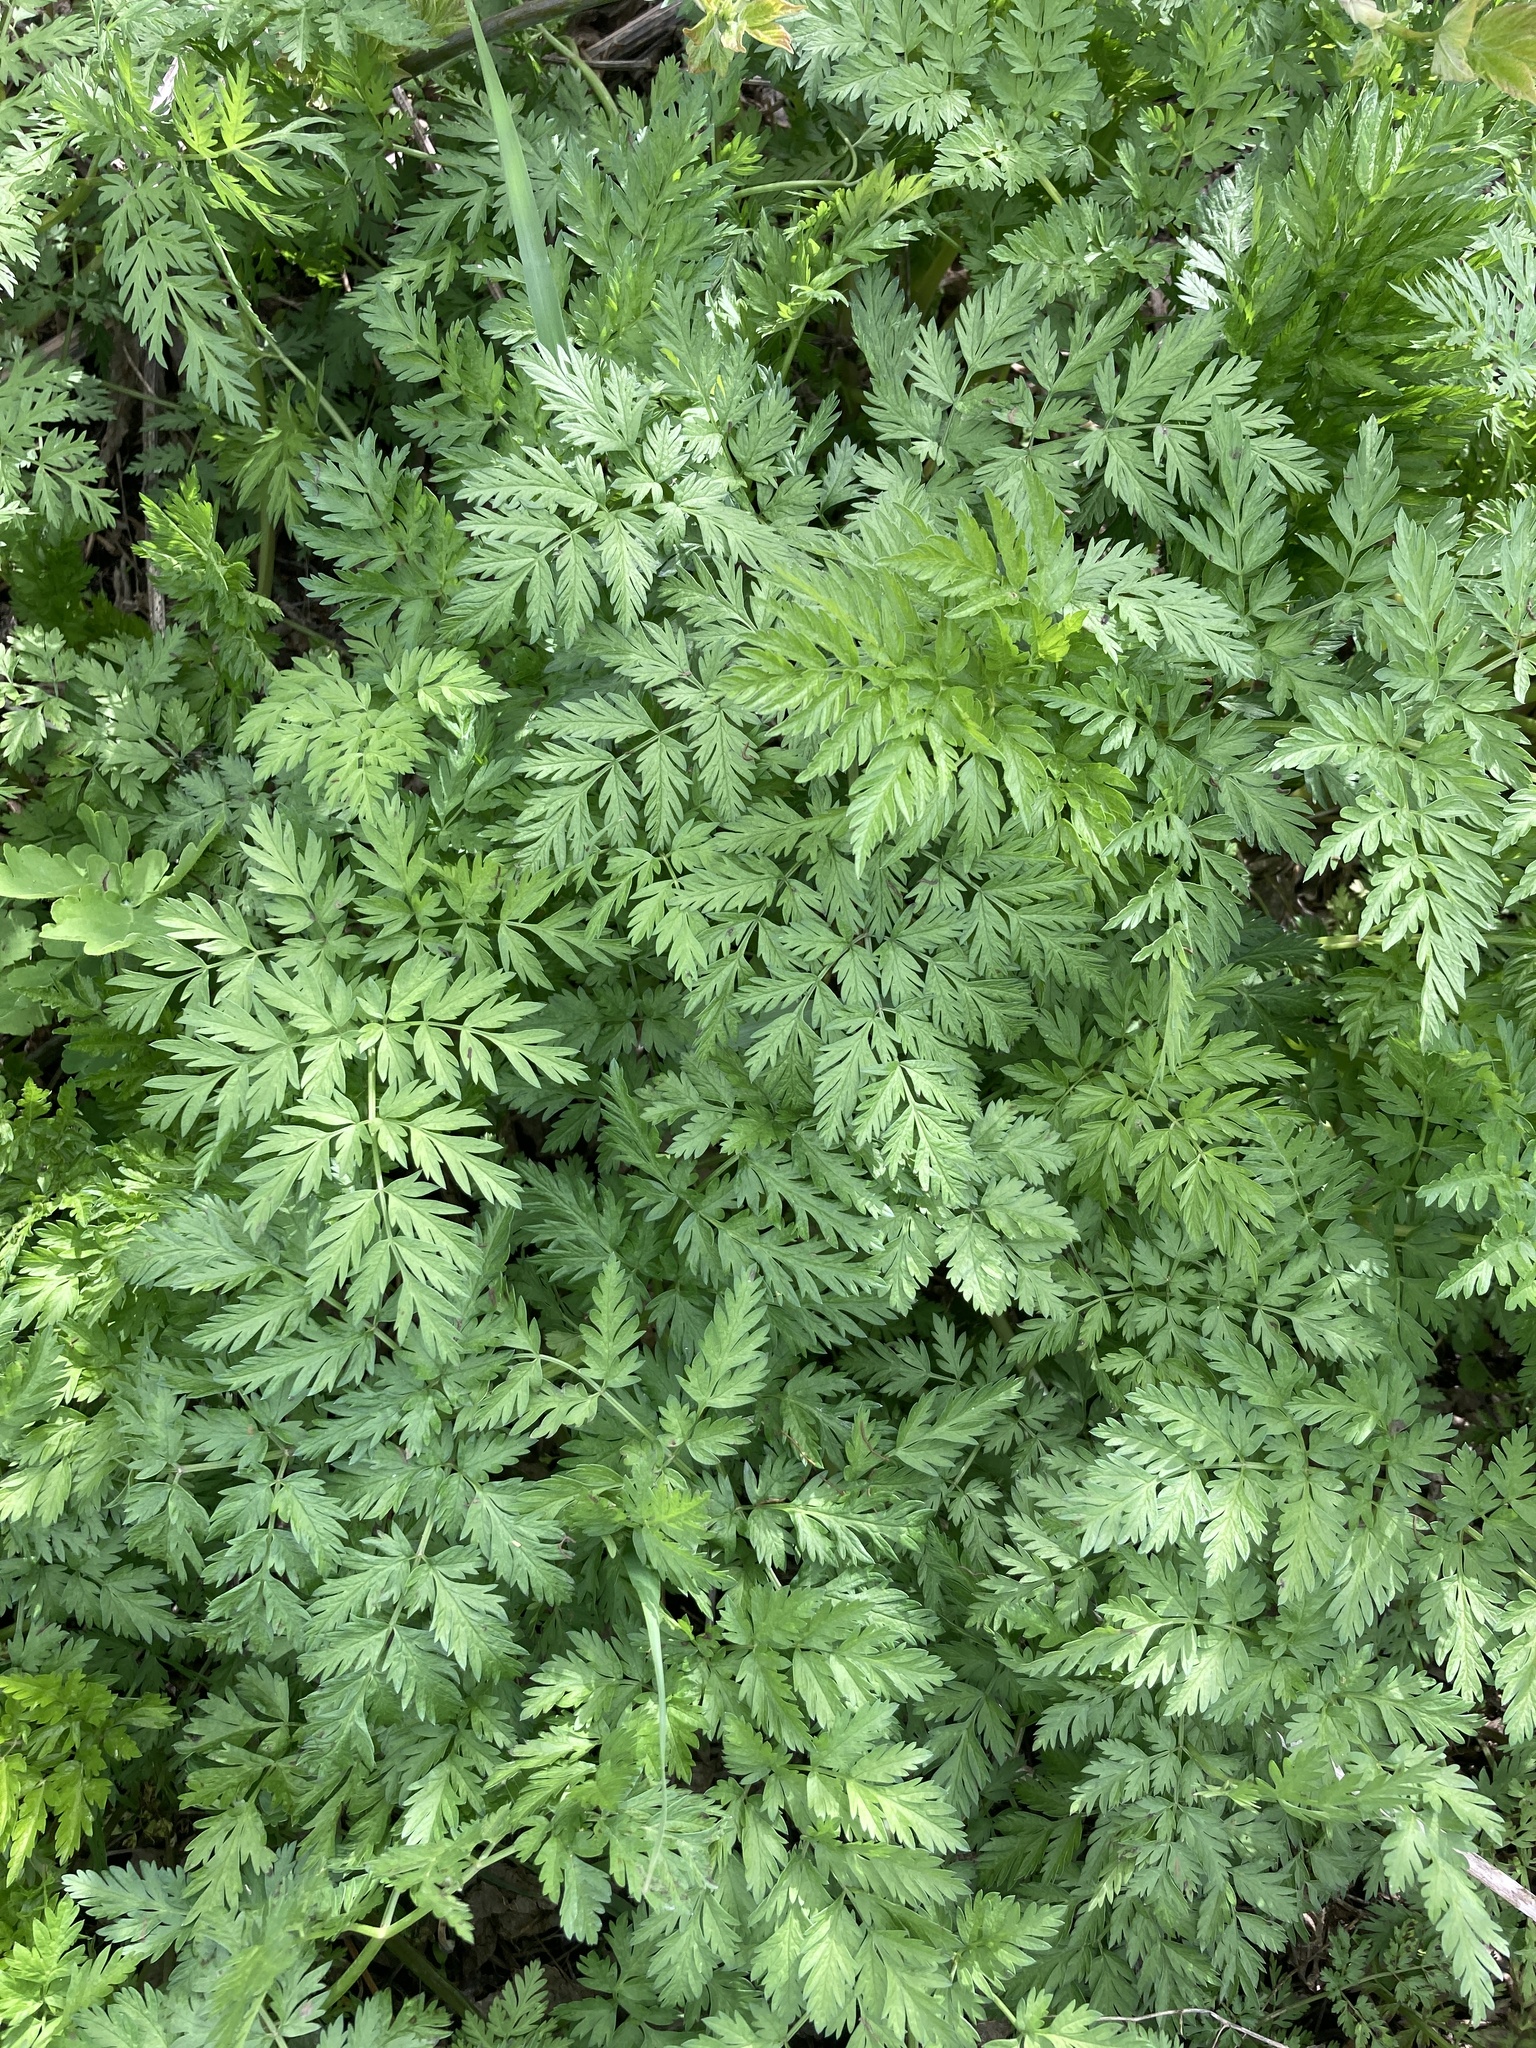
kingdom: Plantae
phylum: Tracheophyta
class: Magnoliopsida
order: Apiales
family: Apiaceae
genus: Anthriscus
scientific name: Anthriscus sylvestris
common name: Cow parsley
